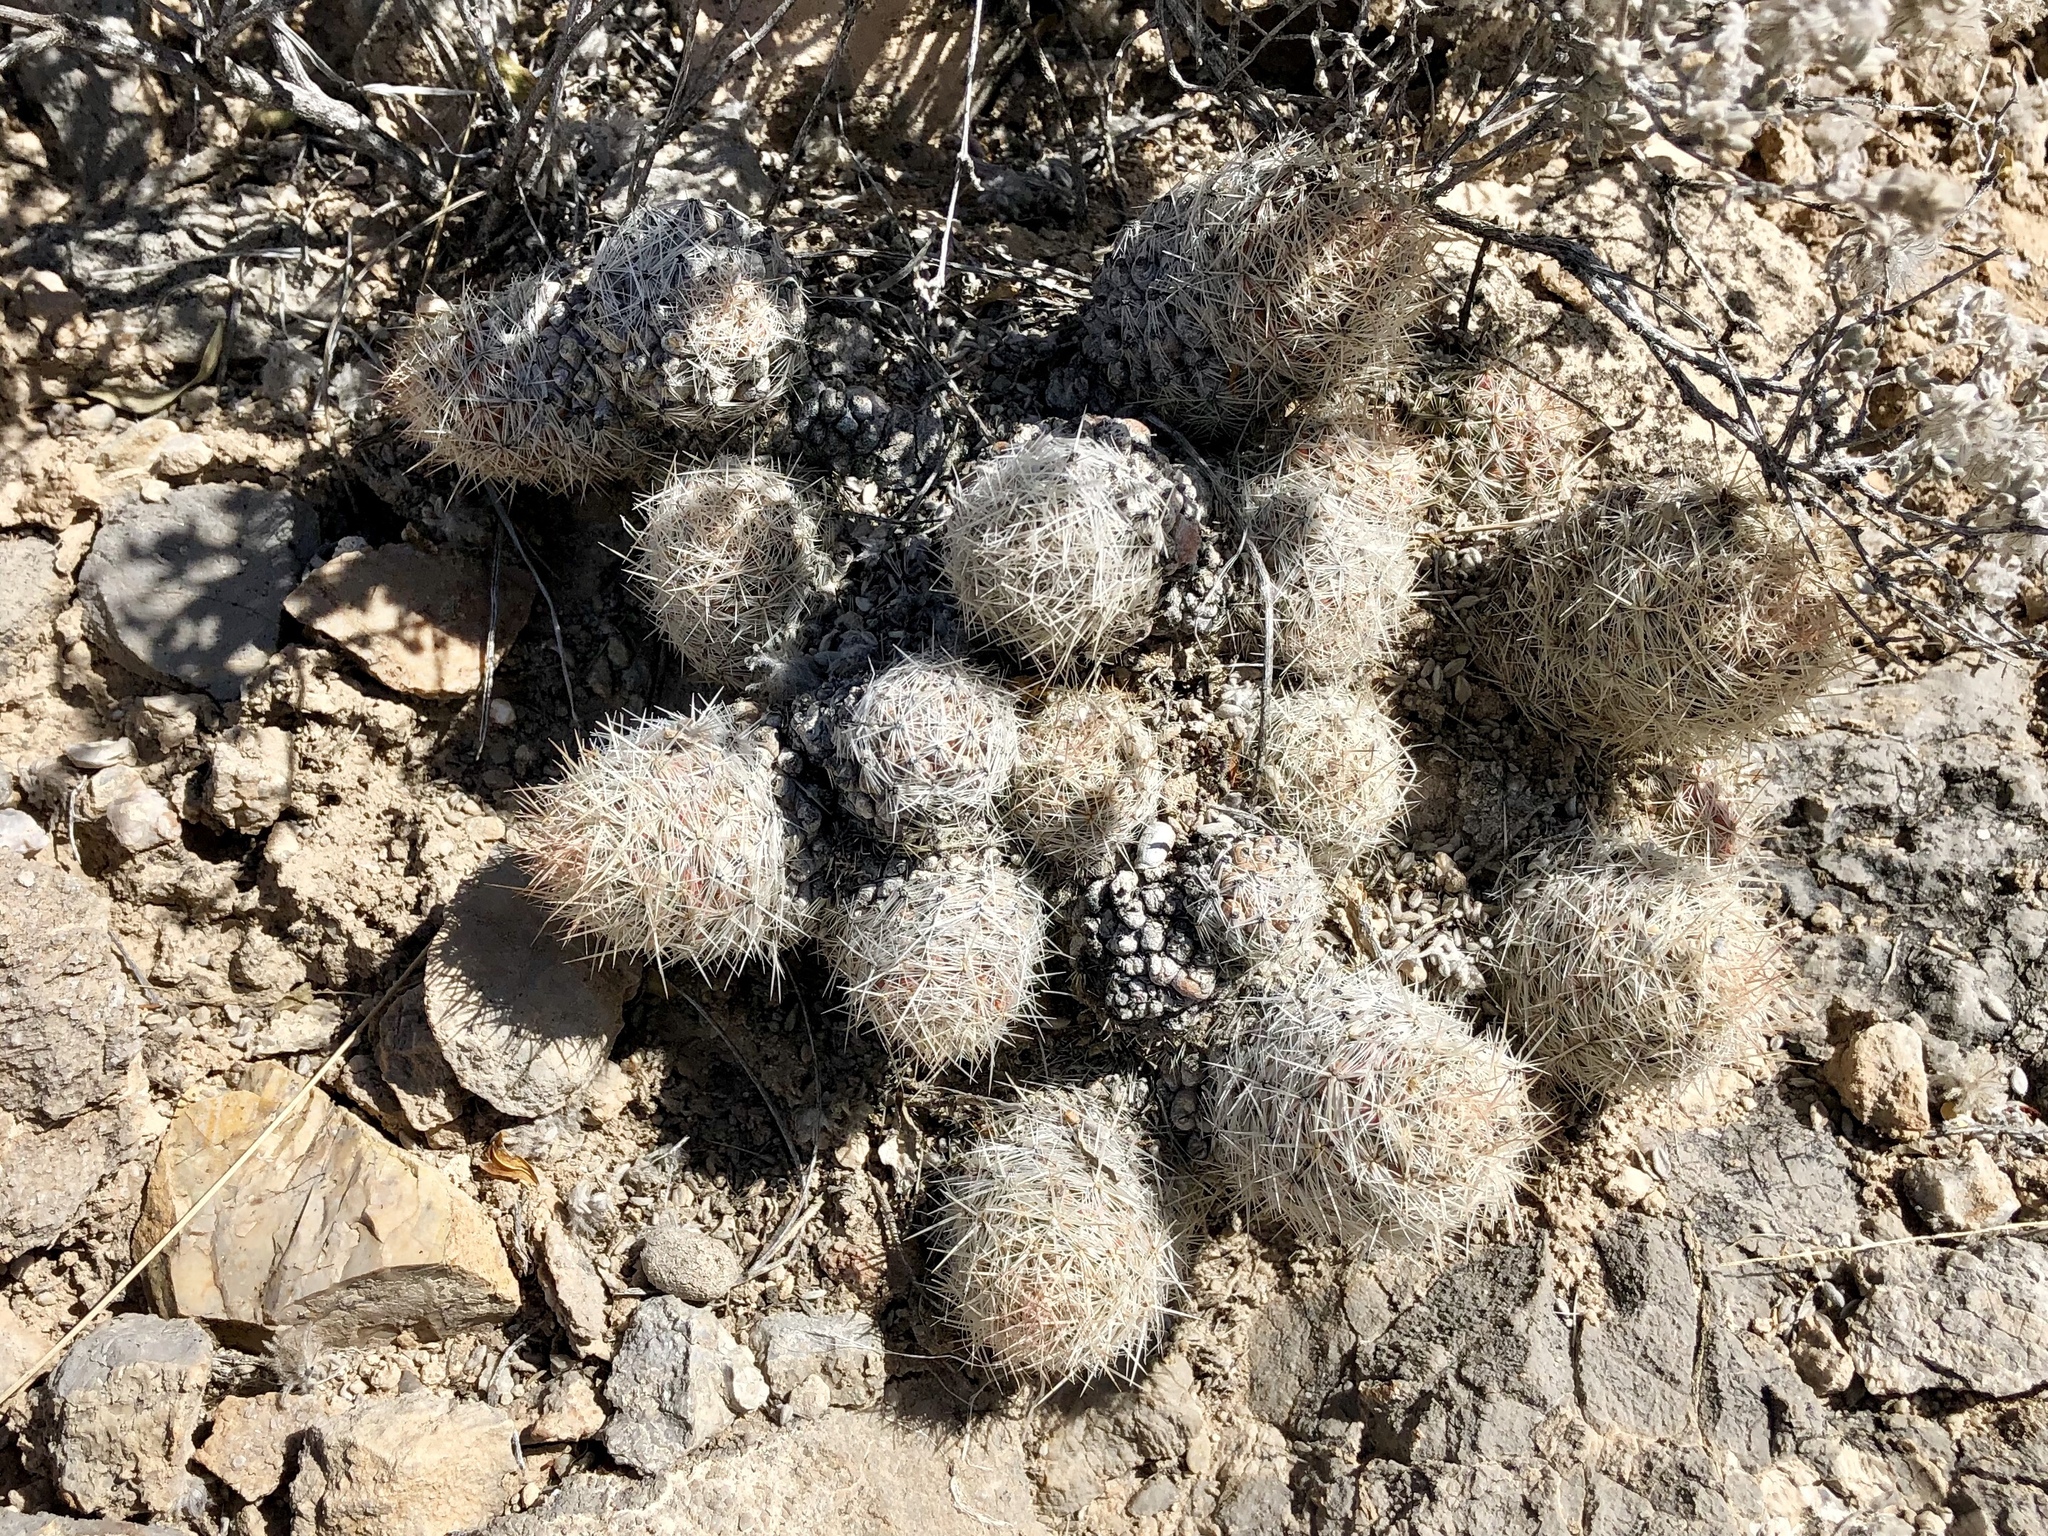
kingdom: Plantae
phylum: Tracheophyta
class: Magnoliopsida
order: Caryophyllales
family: Cactaceae
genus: Pelecyphora
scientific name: Pelecyphora tuberculosa
